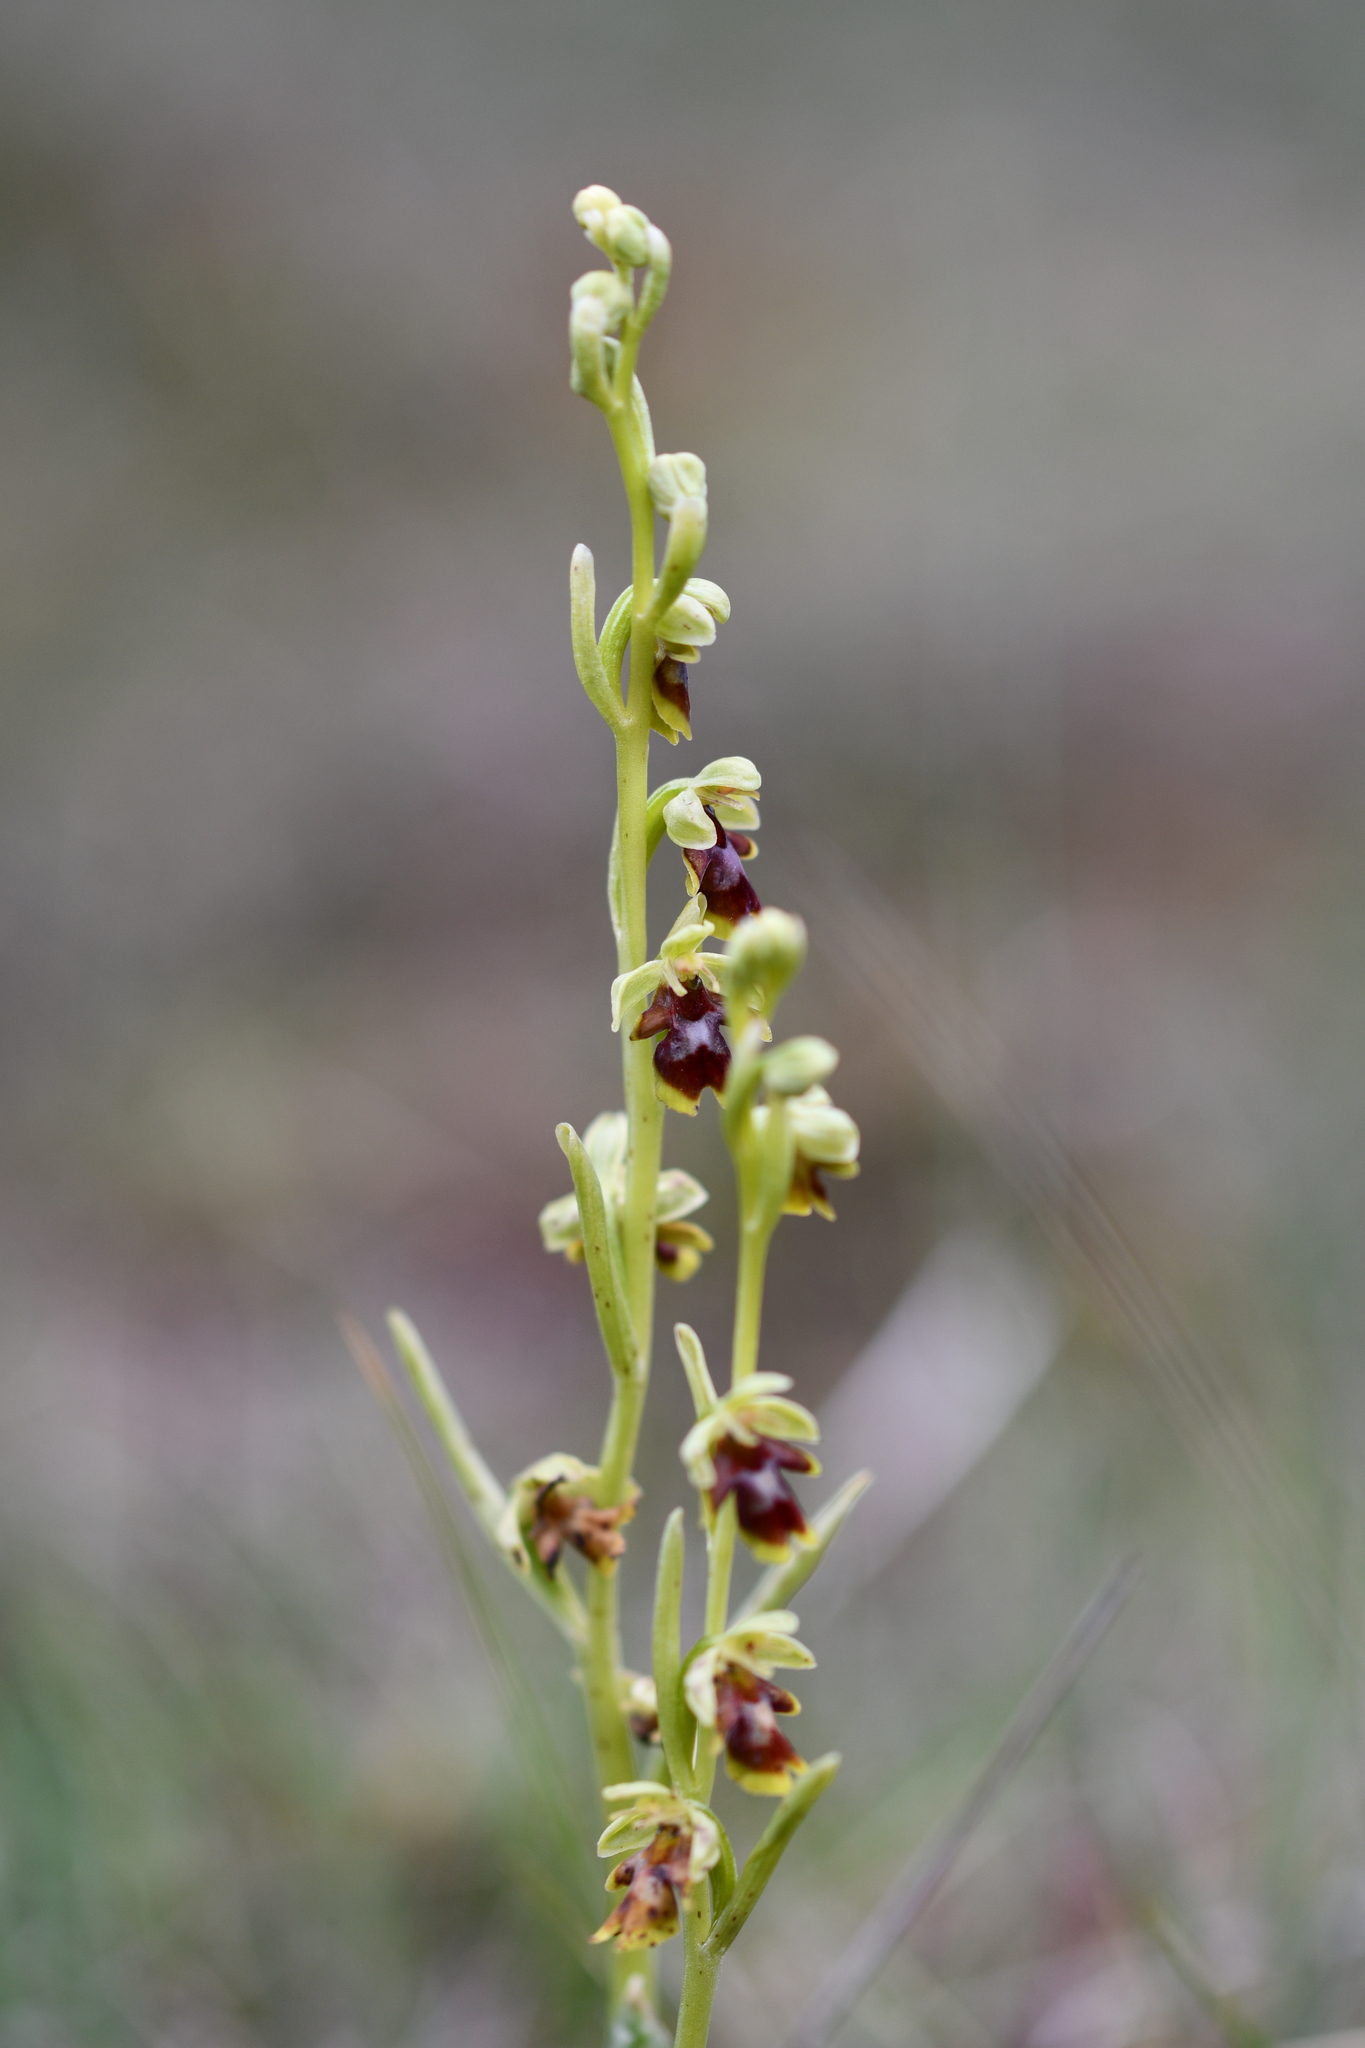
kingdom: Plantae
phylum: Tracheophyta
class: Liliopsida
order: Asparagales
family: Orchidaceae
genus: Ophrys
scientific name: Ophrys insectifera
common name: Fly orchid
